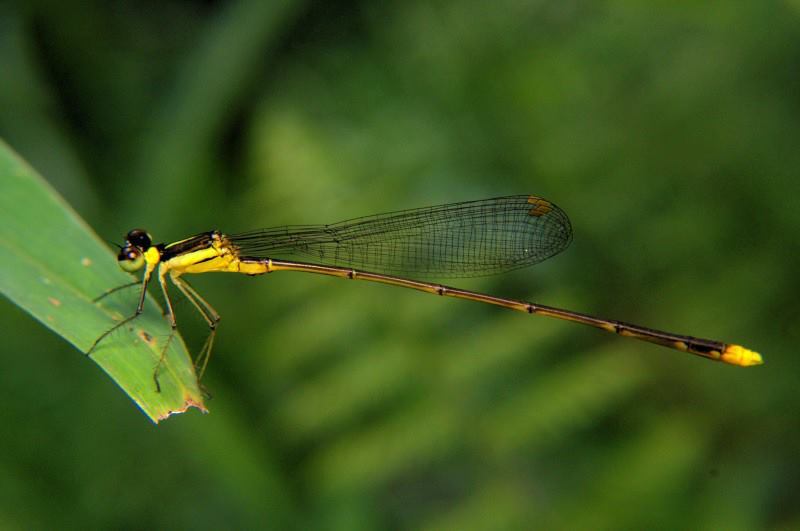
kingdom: Animalia
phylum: Arthropoda
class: Insecta
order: Odonata
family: Platycnemididae
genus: Coeliccia
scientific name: Coeliccia didyma
